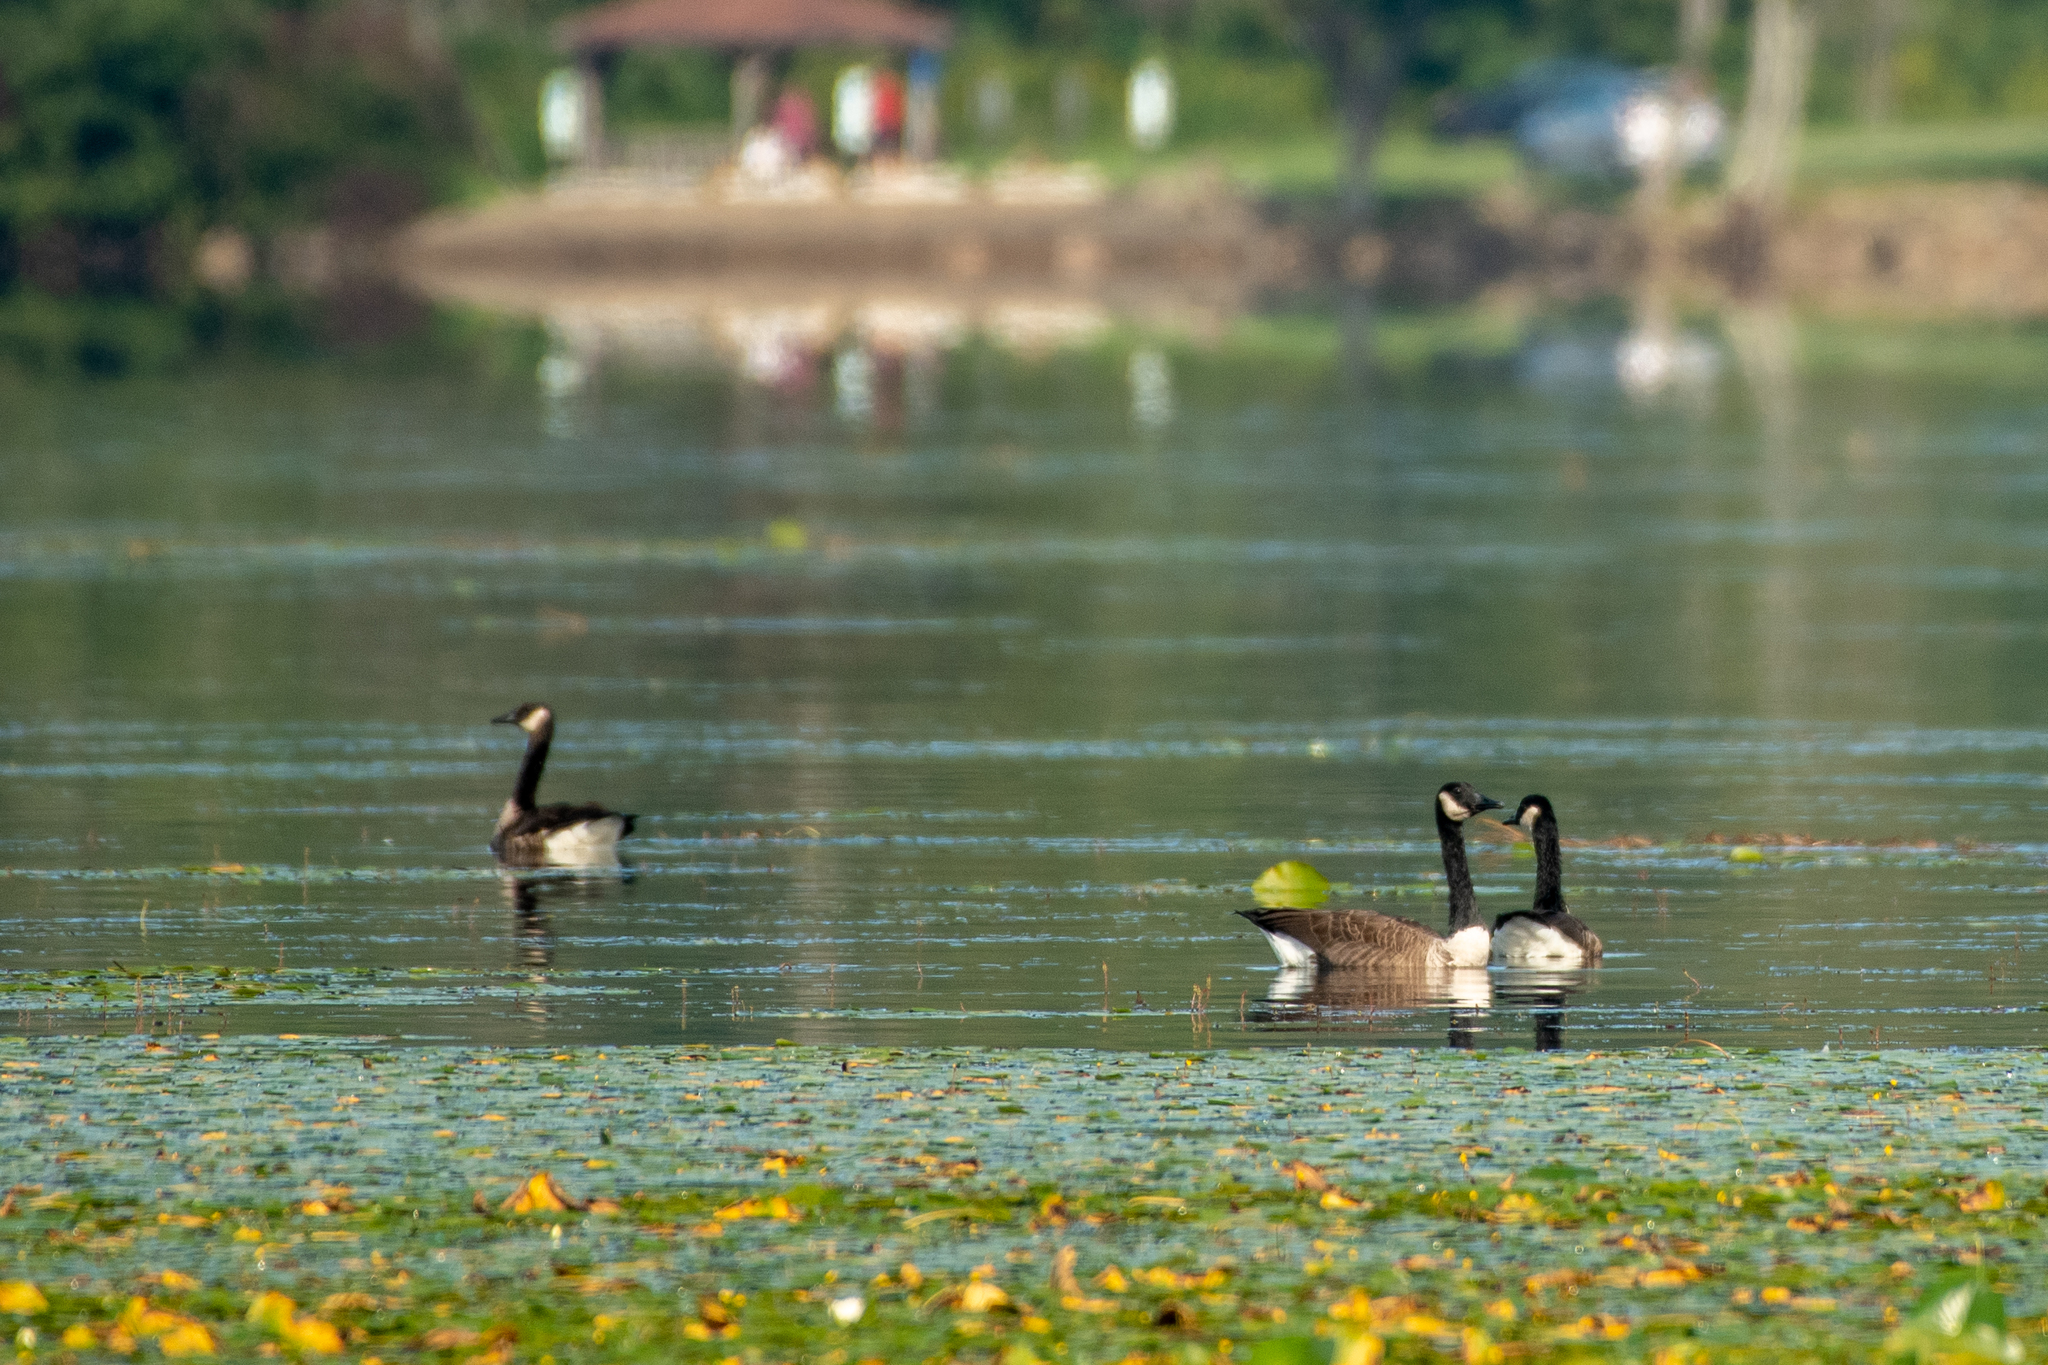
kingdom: Animalia
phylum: Chordata
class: Aves
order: Anseriformes
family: Anatidae
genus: Branta
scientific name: Branta canadensis
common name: Canada goose
